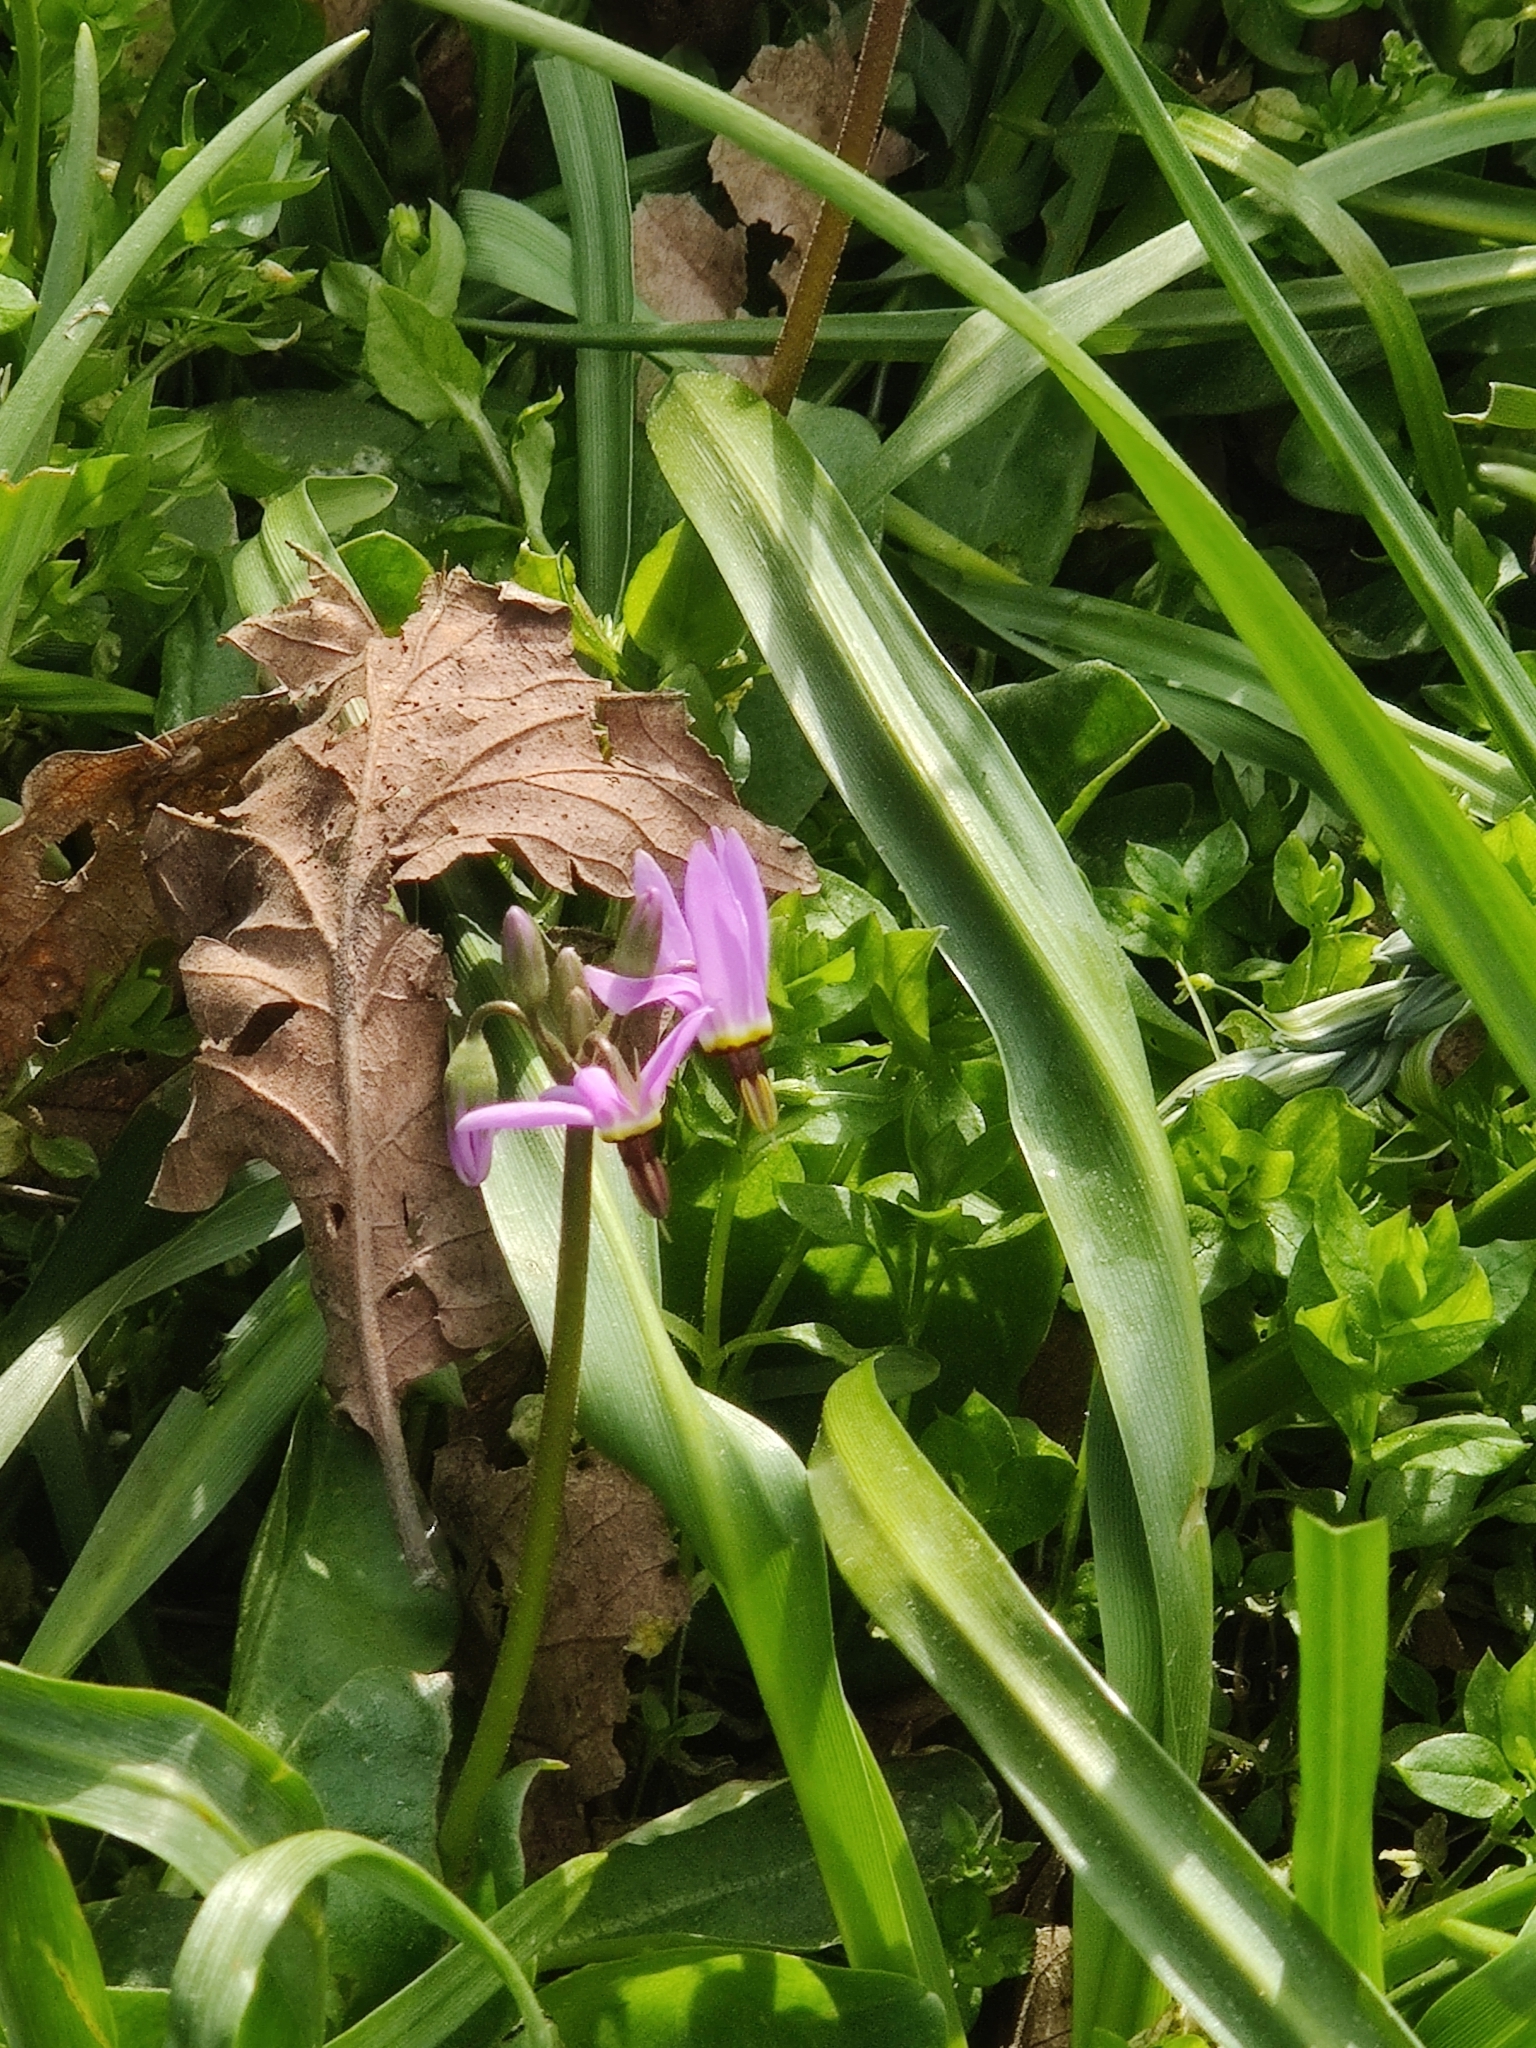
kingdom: Plantae
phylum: Tracheophyta
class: Magnoliopsida
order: Ericales
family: Primulaceae
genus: Dodecatheon
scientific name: Dodecatheon hendersonii
